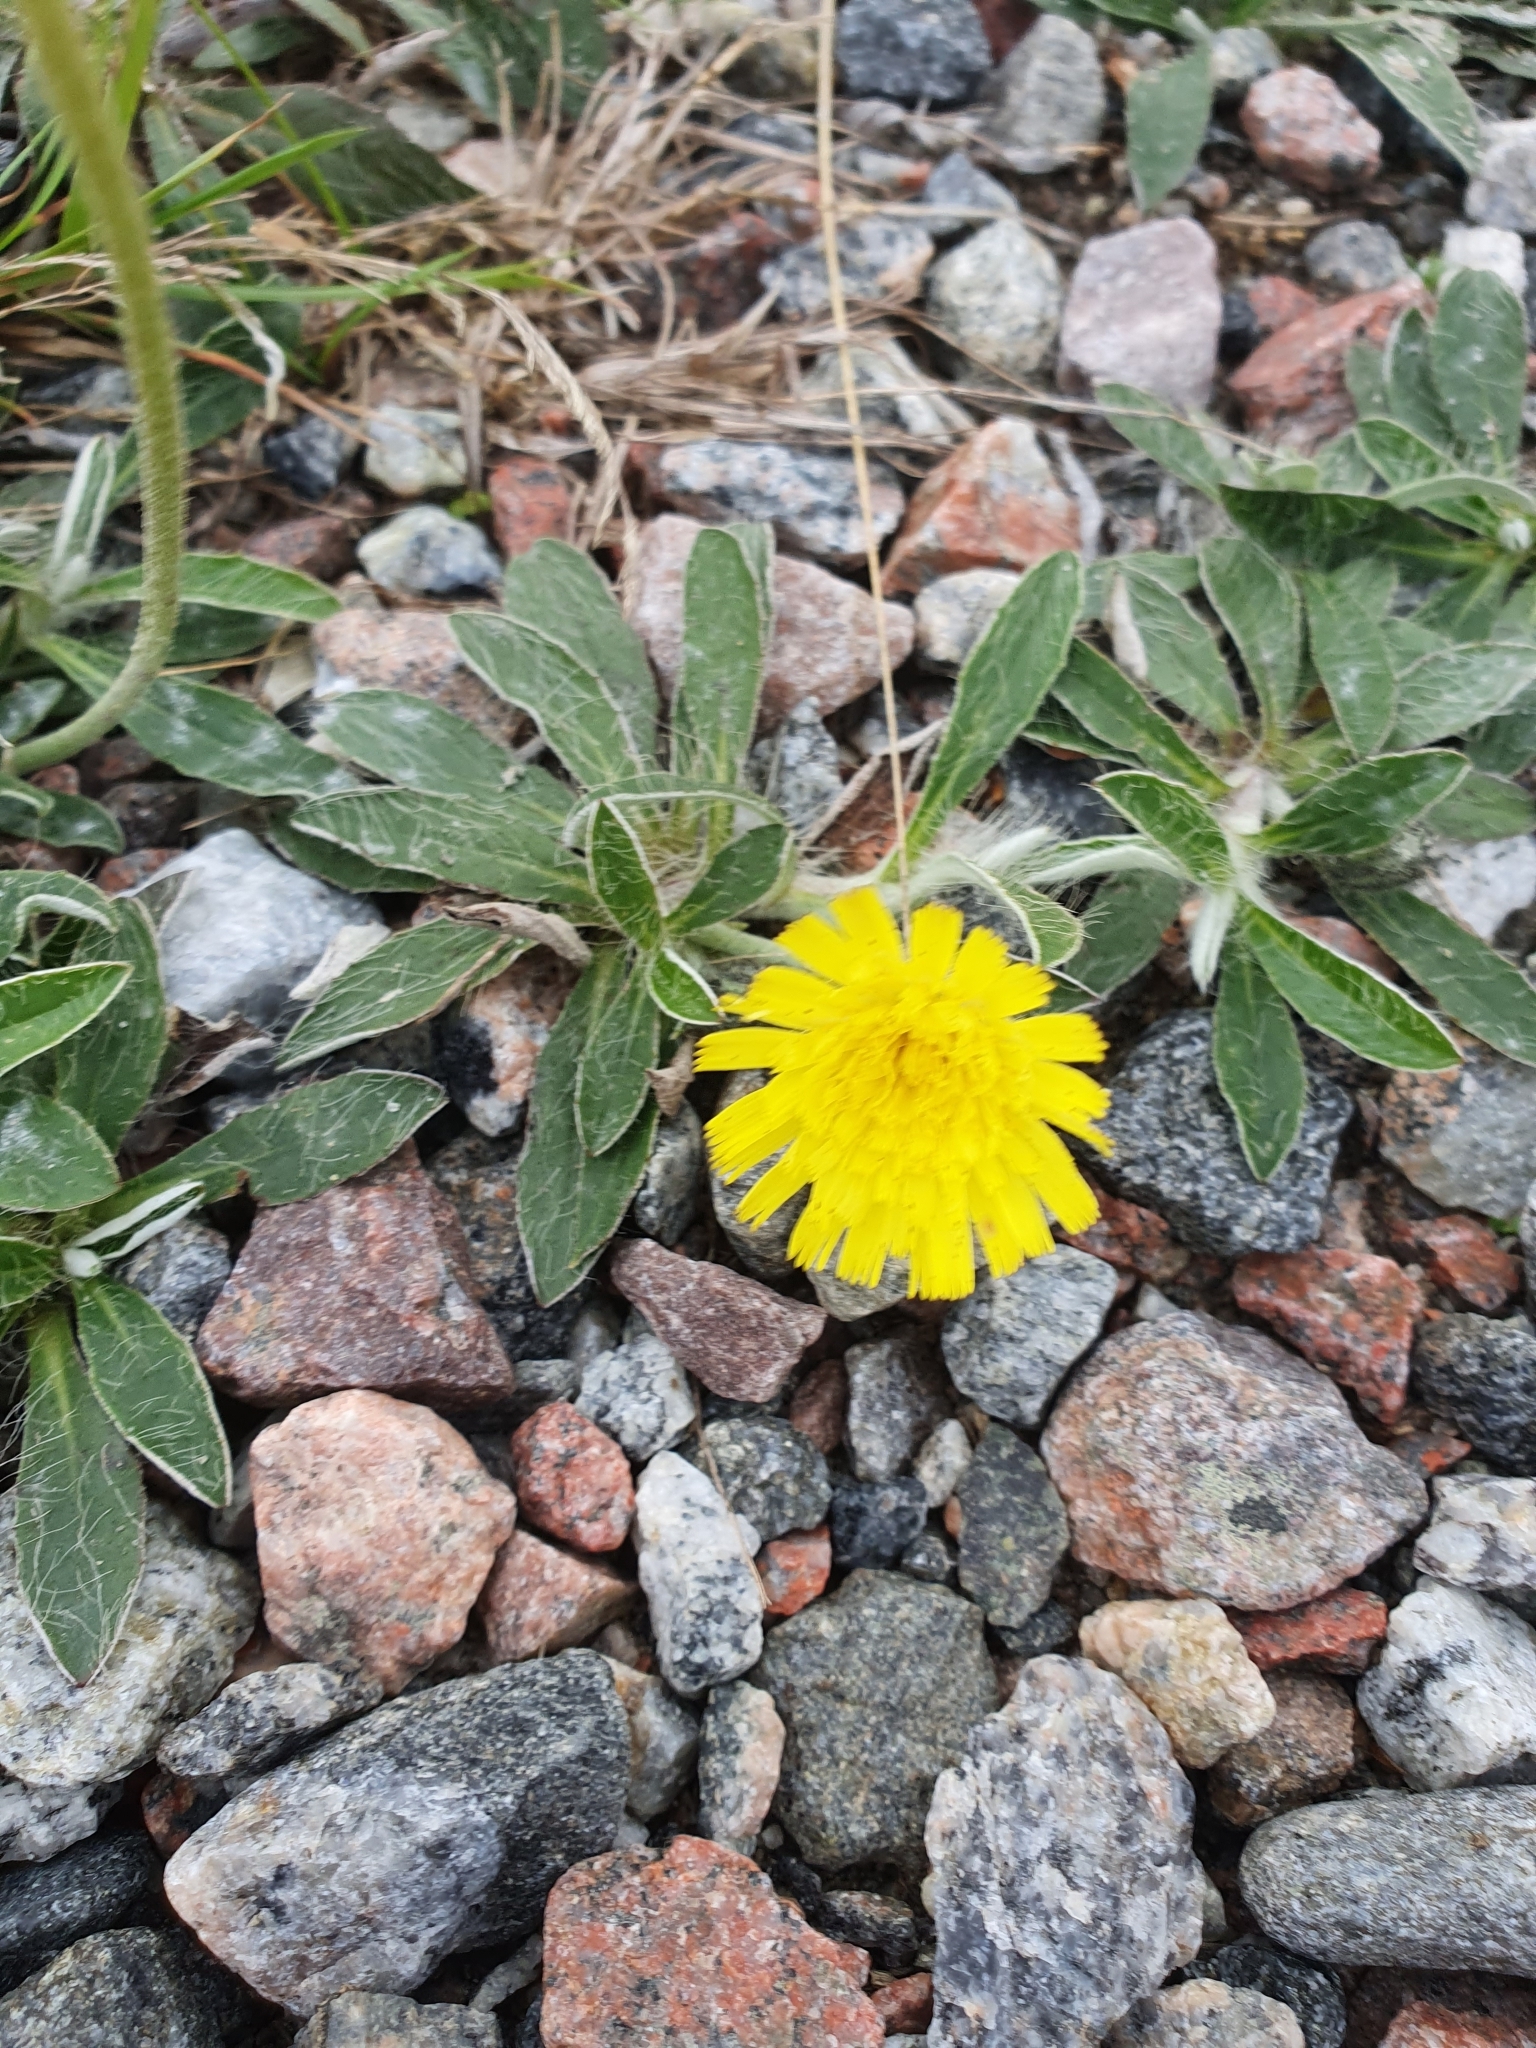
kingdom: Plantae
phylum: Tracheophyta
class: Magnoliopsida
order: Asterales
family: Asteraceae
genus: Pilosella
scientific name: Pilosella officinarum
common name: Mouse-ear hawkweed
